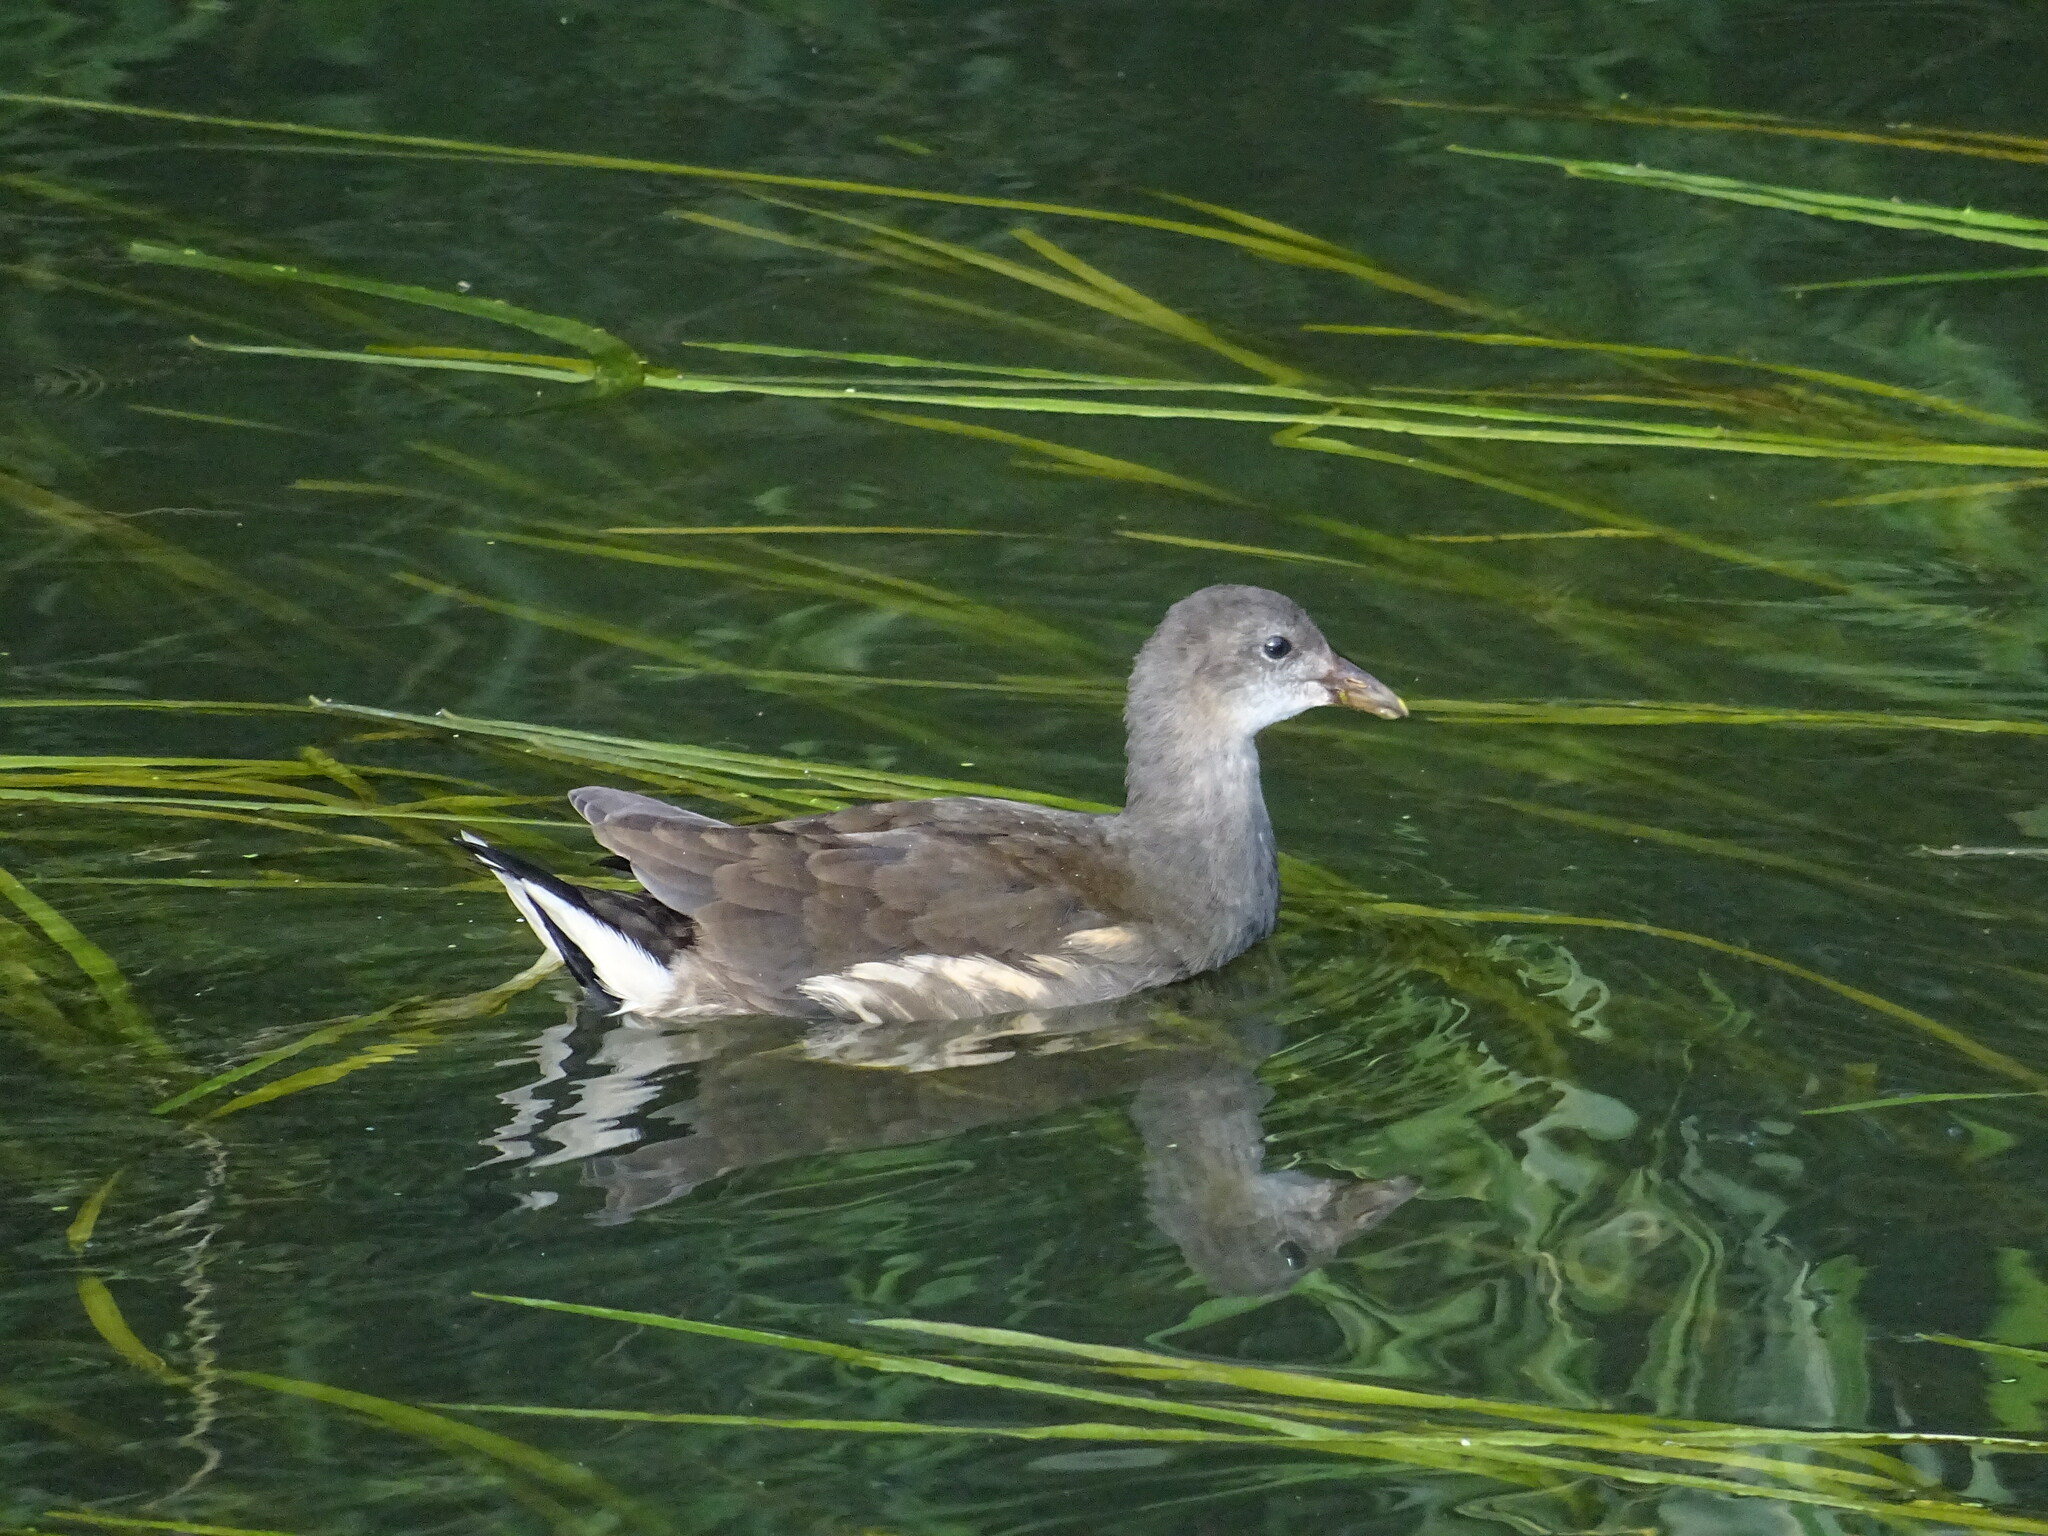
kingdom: Animalia
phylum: Chordata
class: Aves
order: Gruiformes
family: Rallidae
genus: Gallinula
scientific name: Gallinula chloropus
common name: Common moorhen
